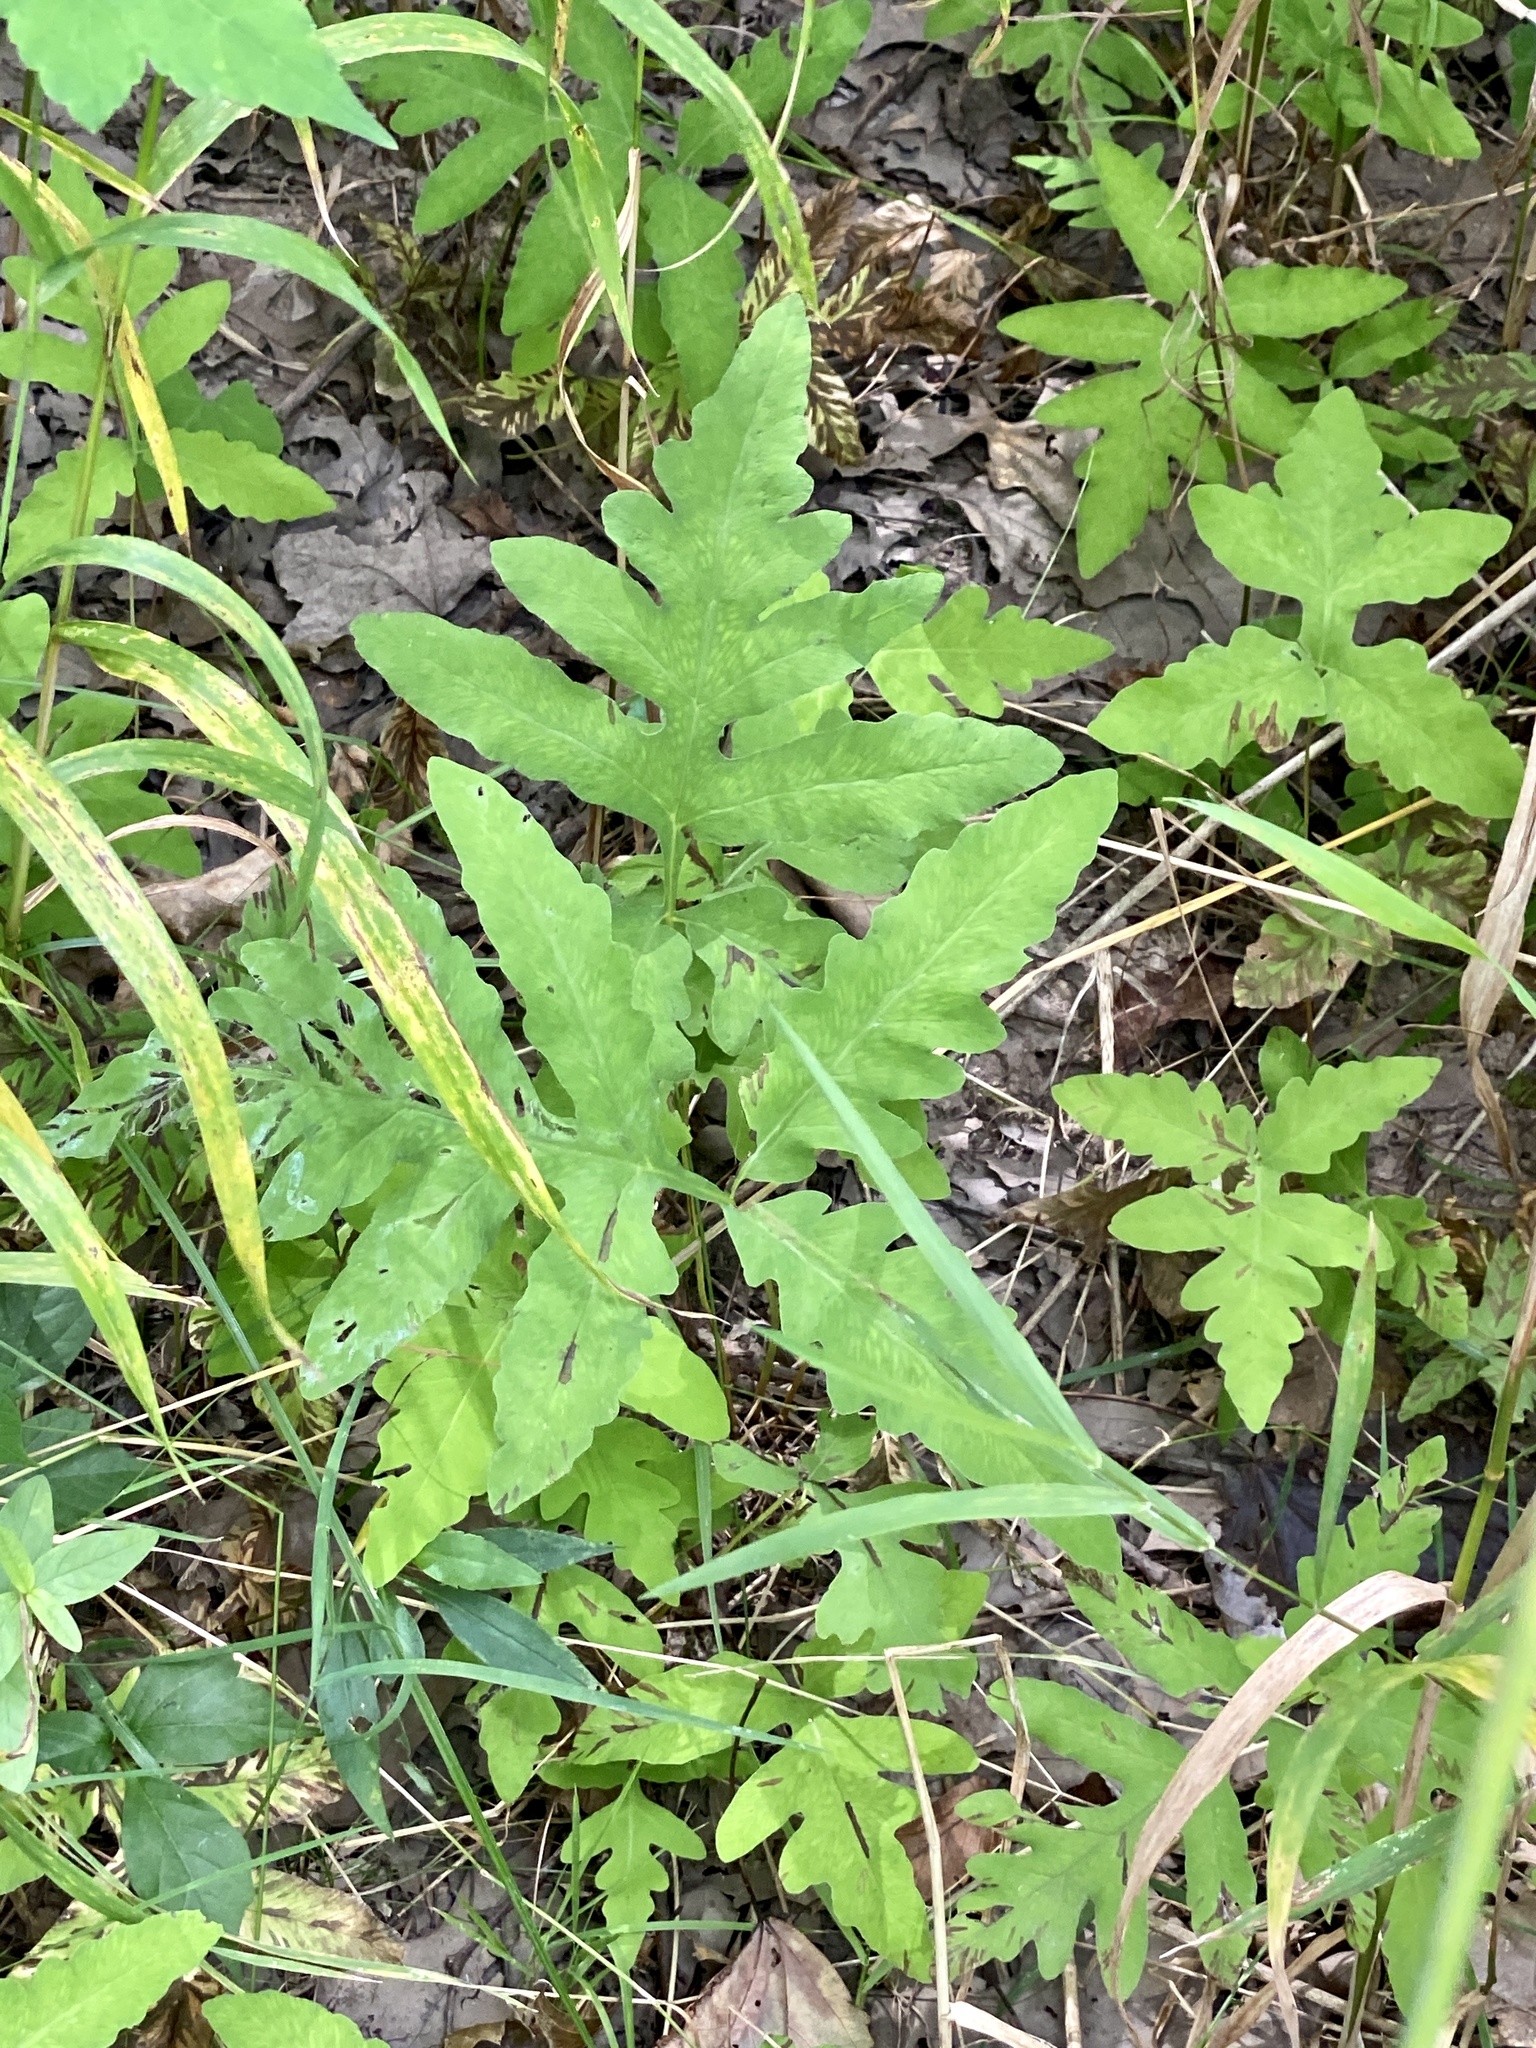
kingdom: Plantae
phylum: Tracheophyta
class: Polypodiopsida
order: Polypodiales
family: Onocleaceae
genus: Onoclea
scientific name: Onoclea sensibilis
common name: Sensitive fern
